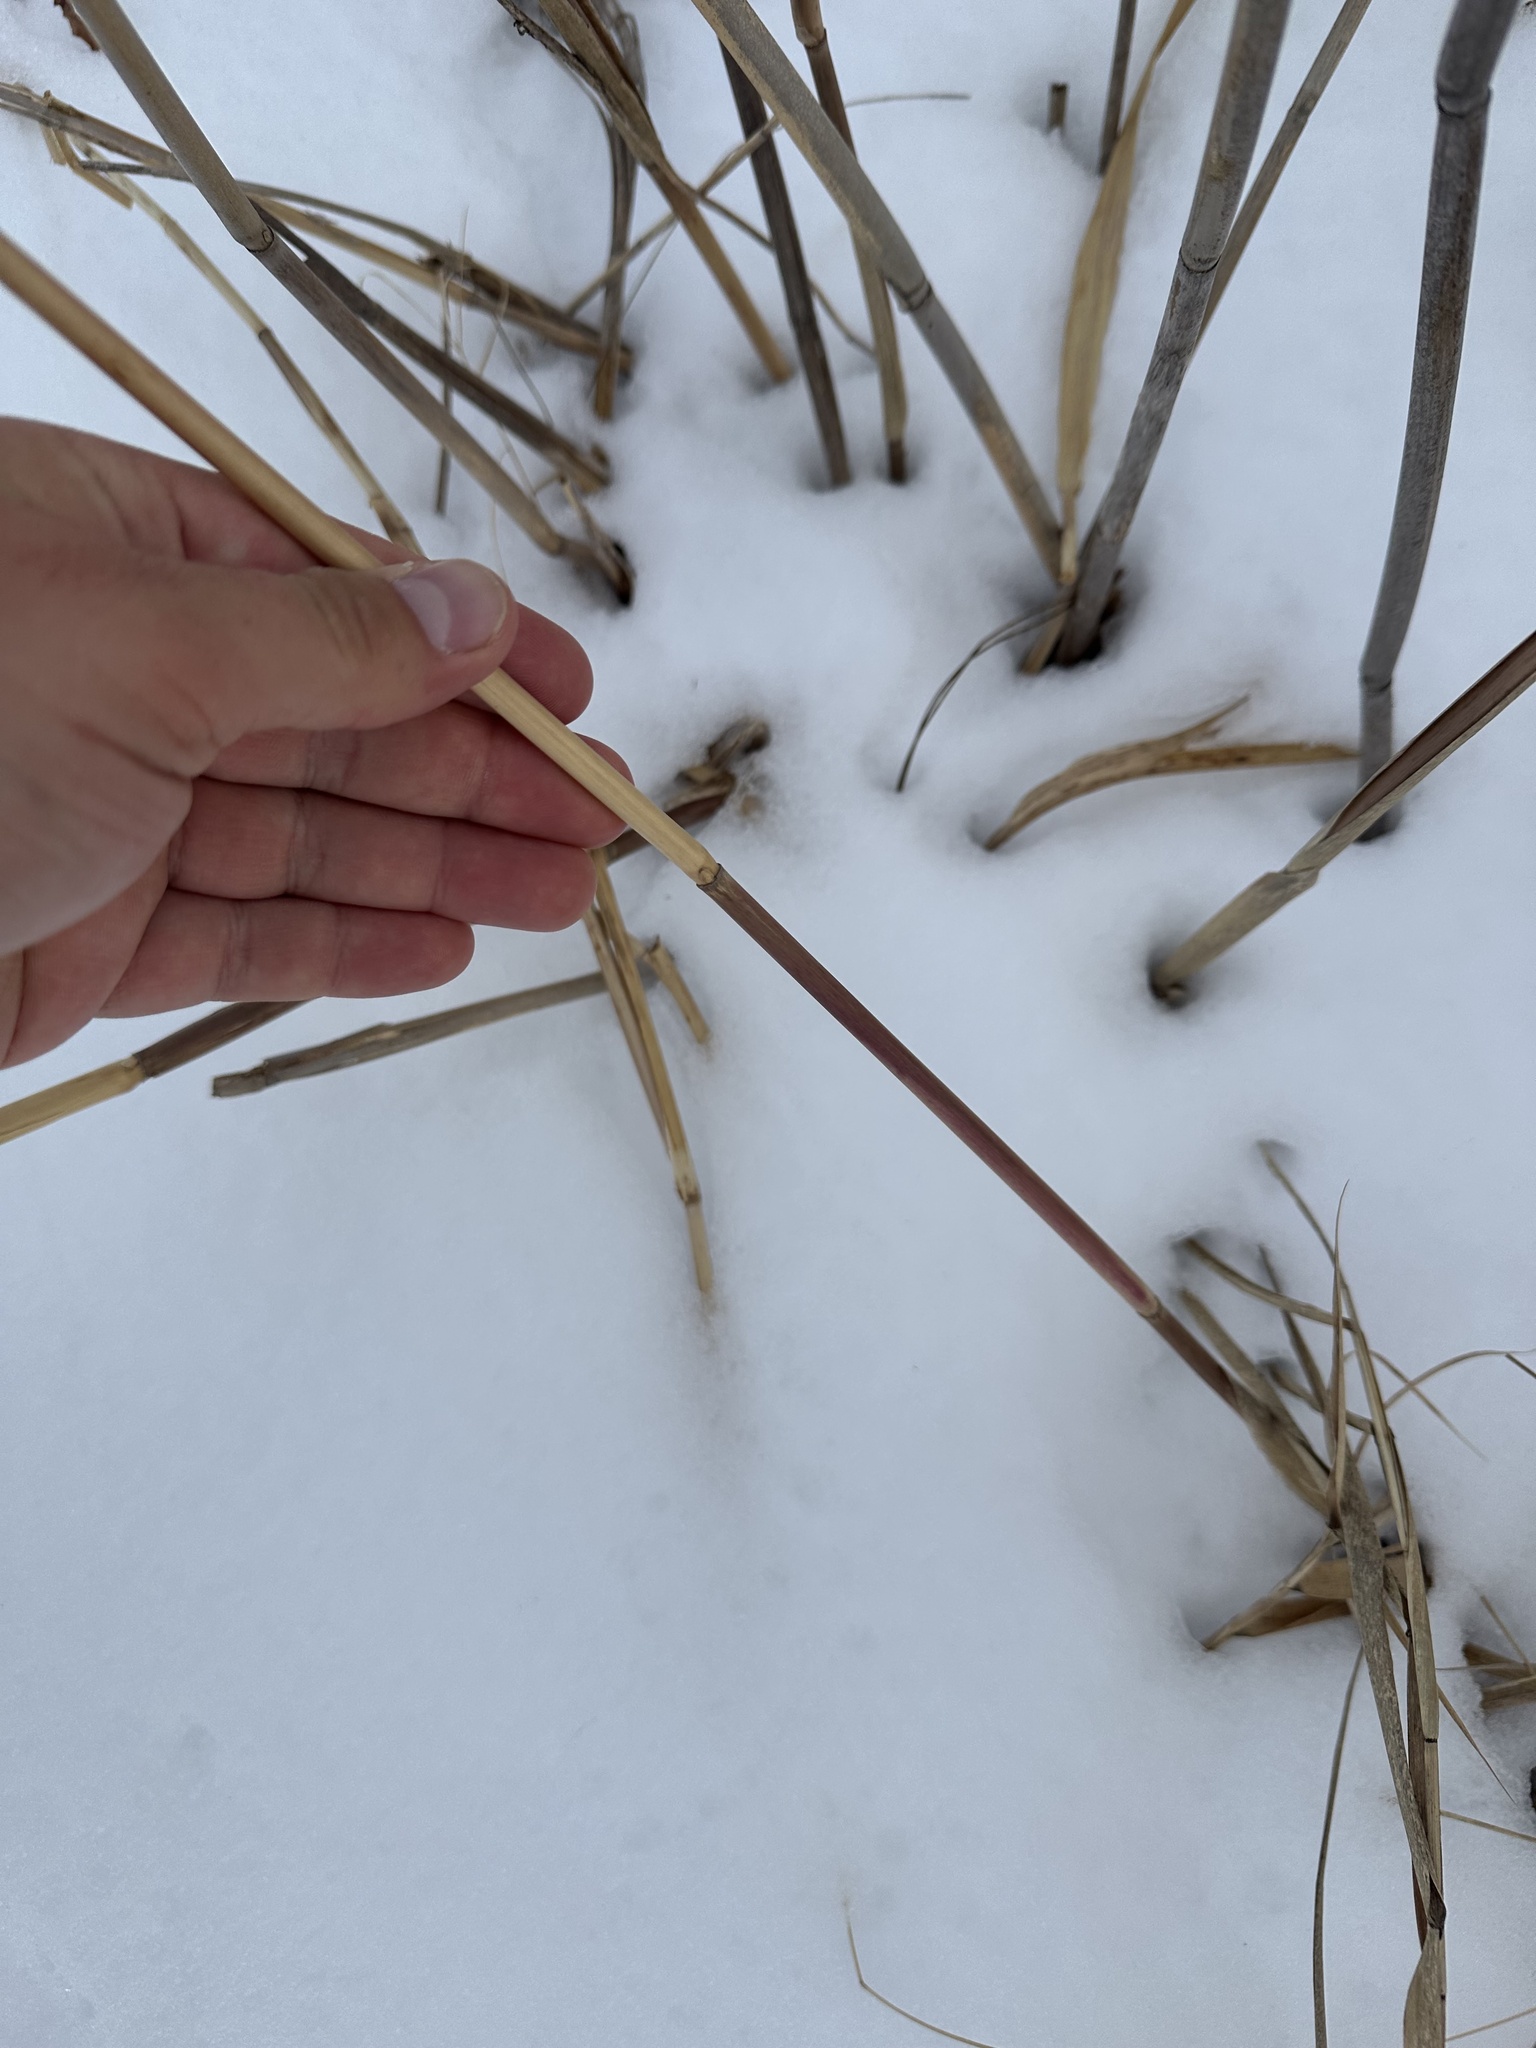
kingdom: Plantae
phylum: Tracheophyta
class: Liliopsida
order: Poales
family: Poaceae
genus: Phragmites
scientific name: Phragmites australis
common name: Common reed
